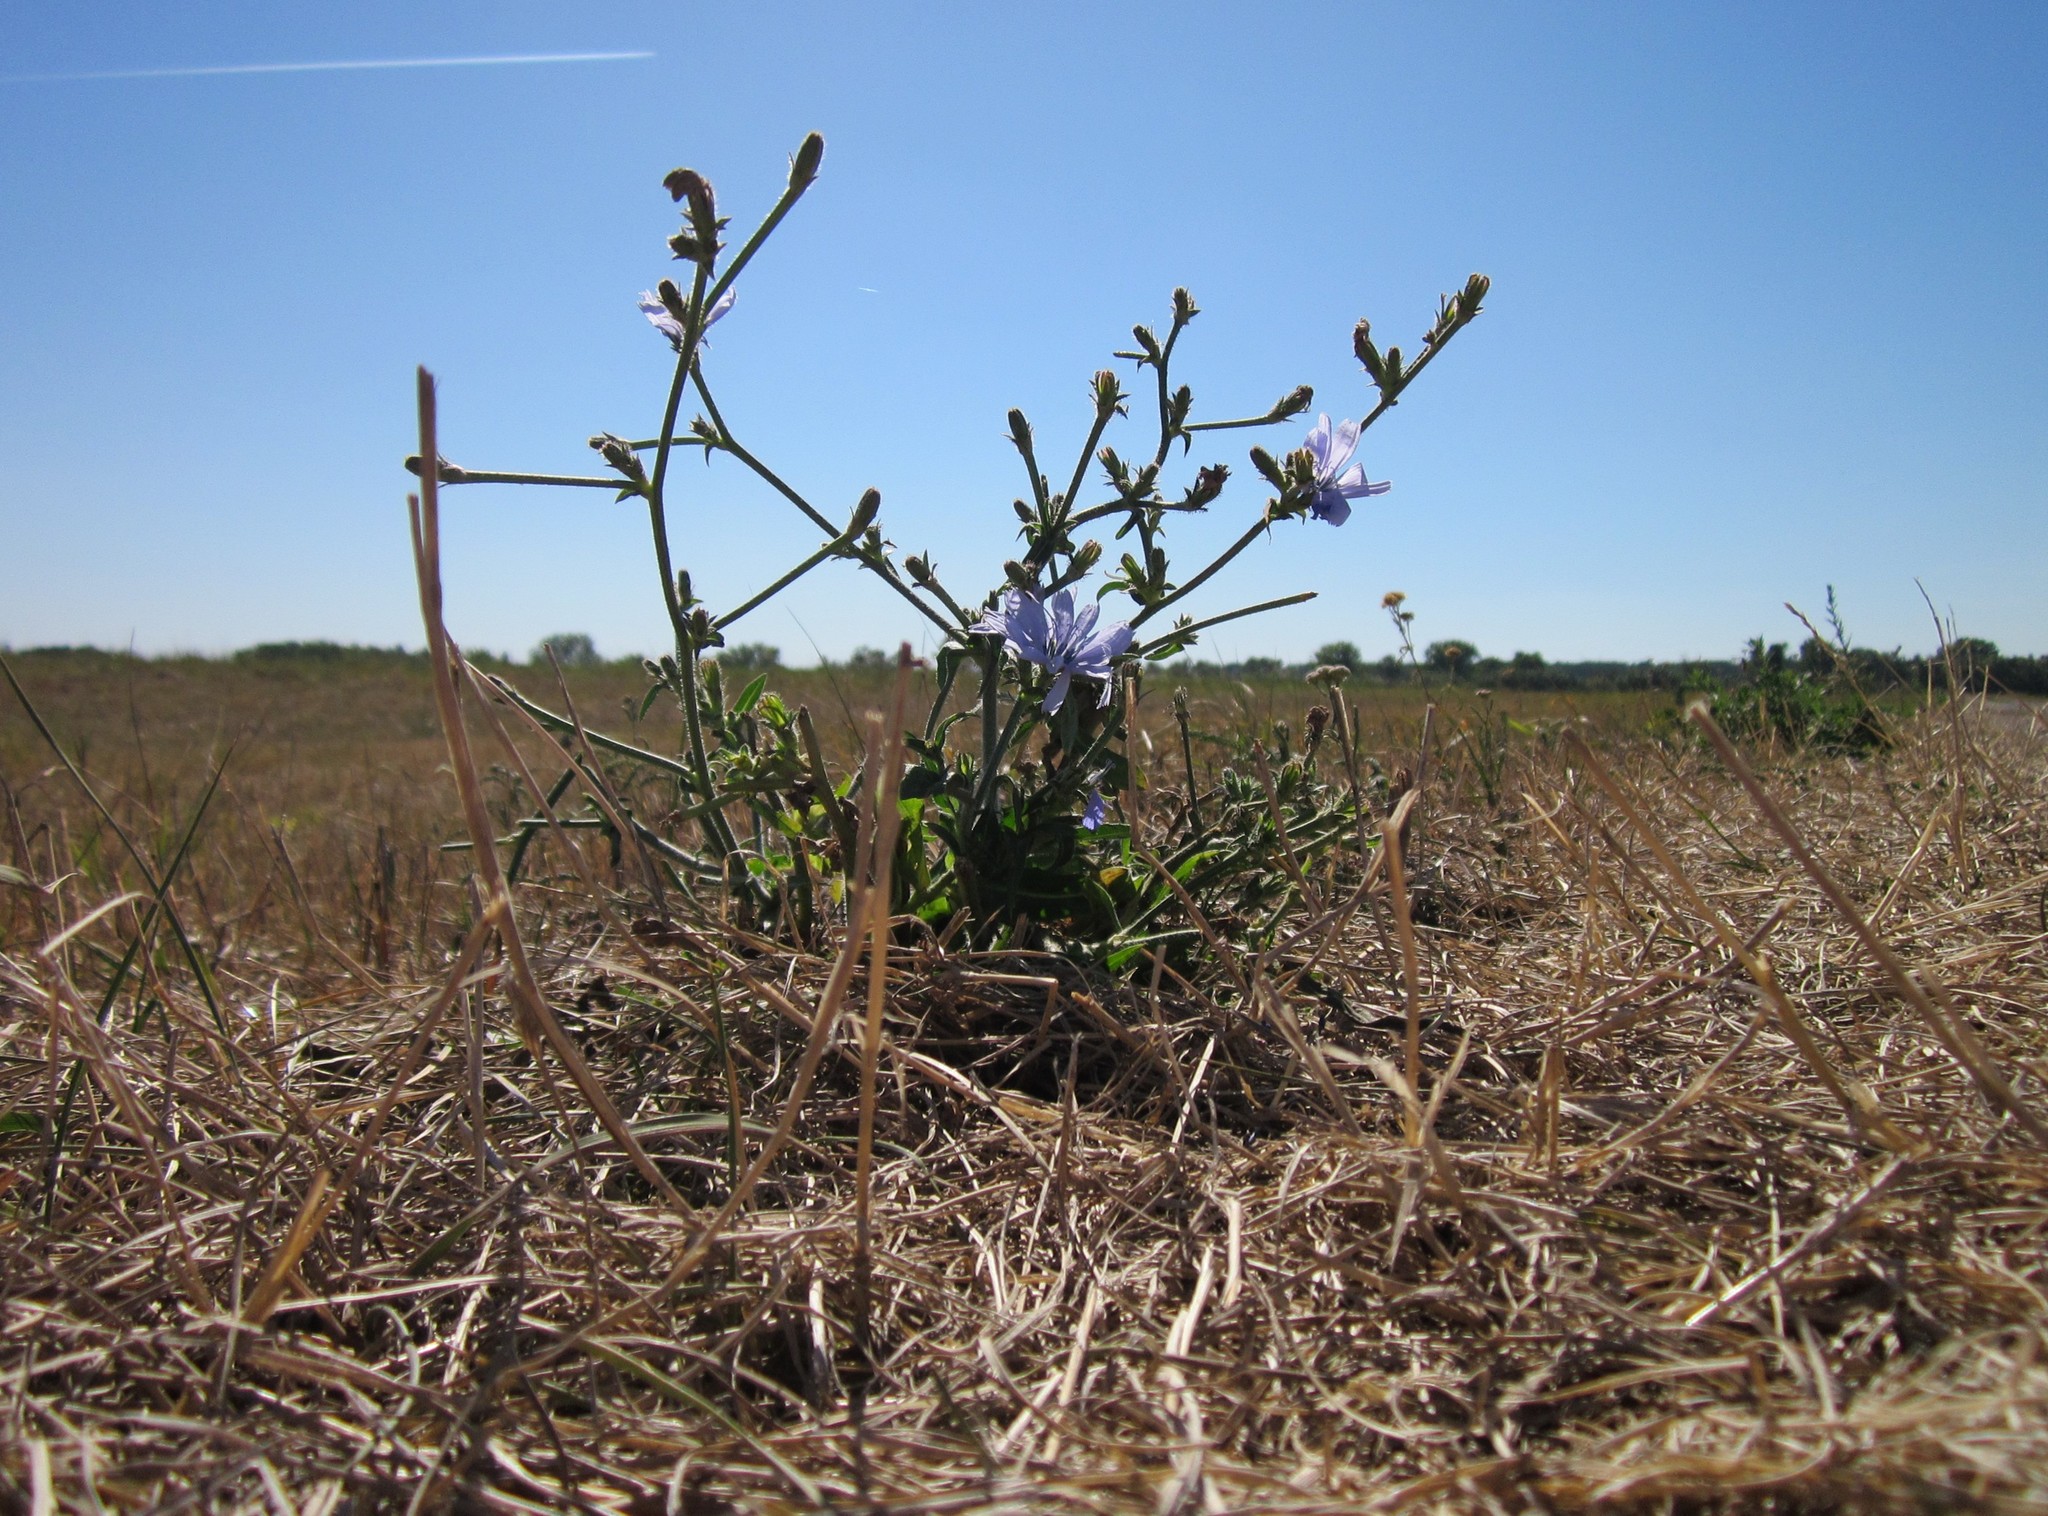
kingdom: Plantae
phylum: Tracheophyta
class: Magnoliopsida
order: Asterales
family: Asteraceae
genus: Cichorium
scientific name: Cichorium intybus
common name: Chicory
